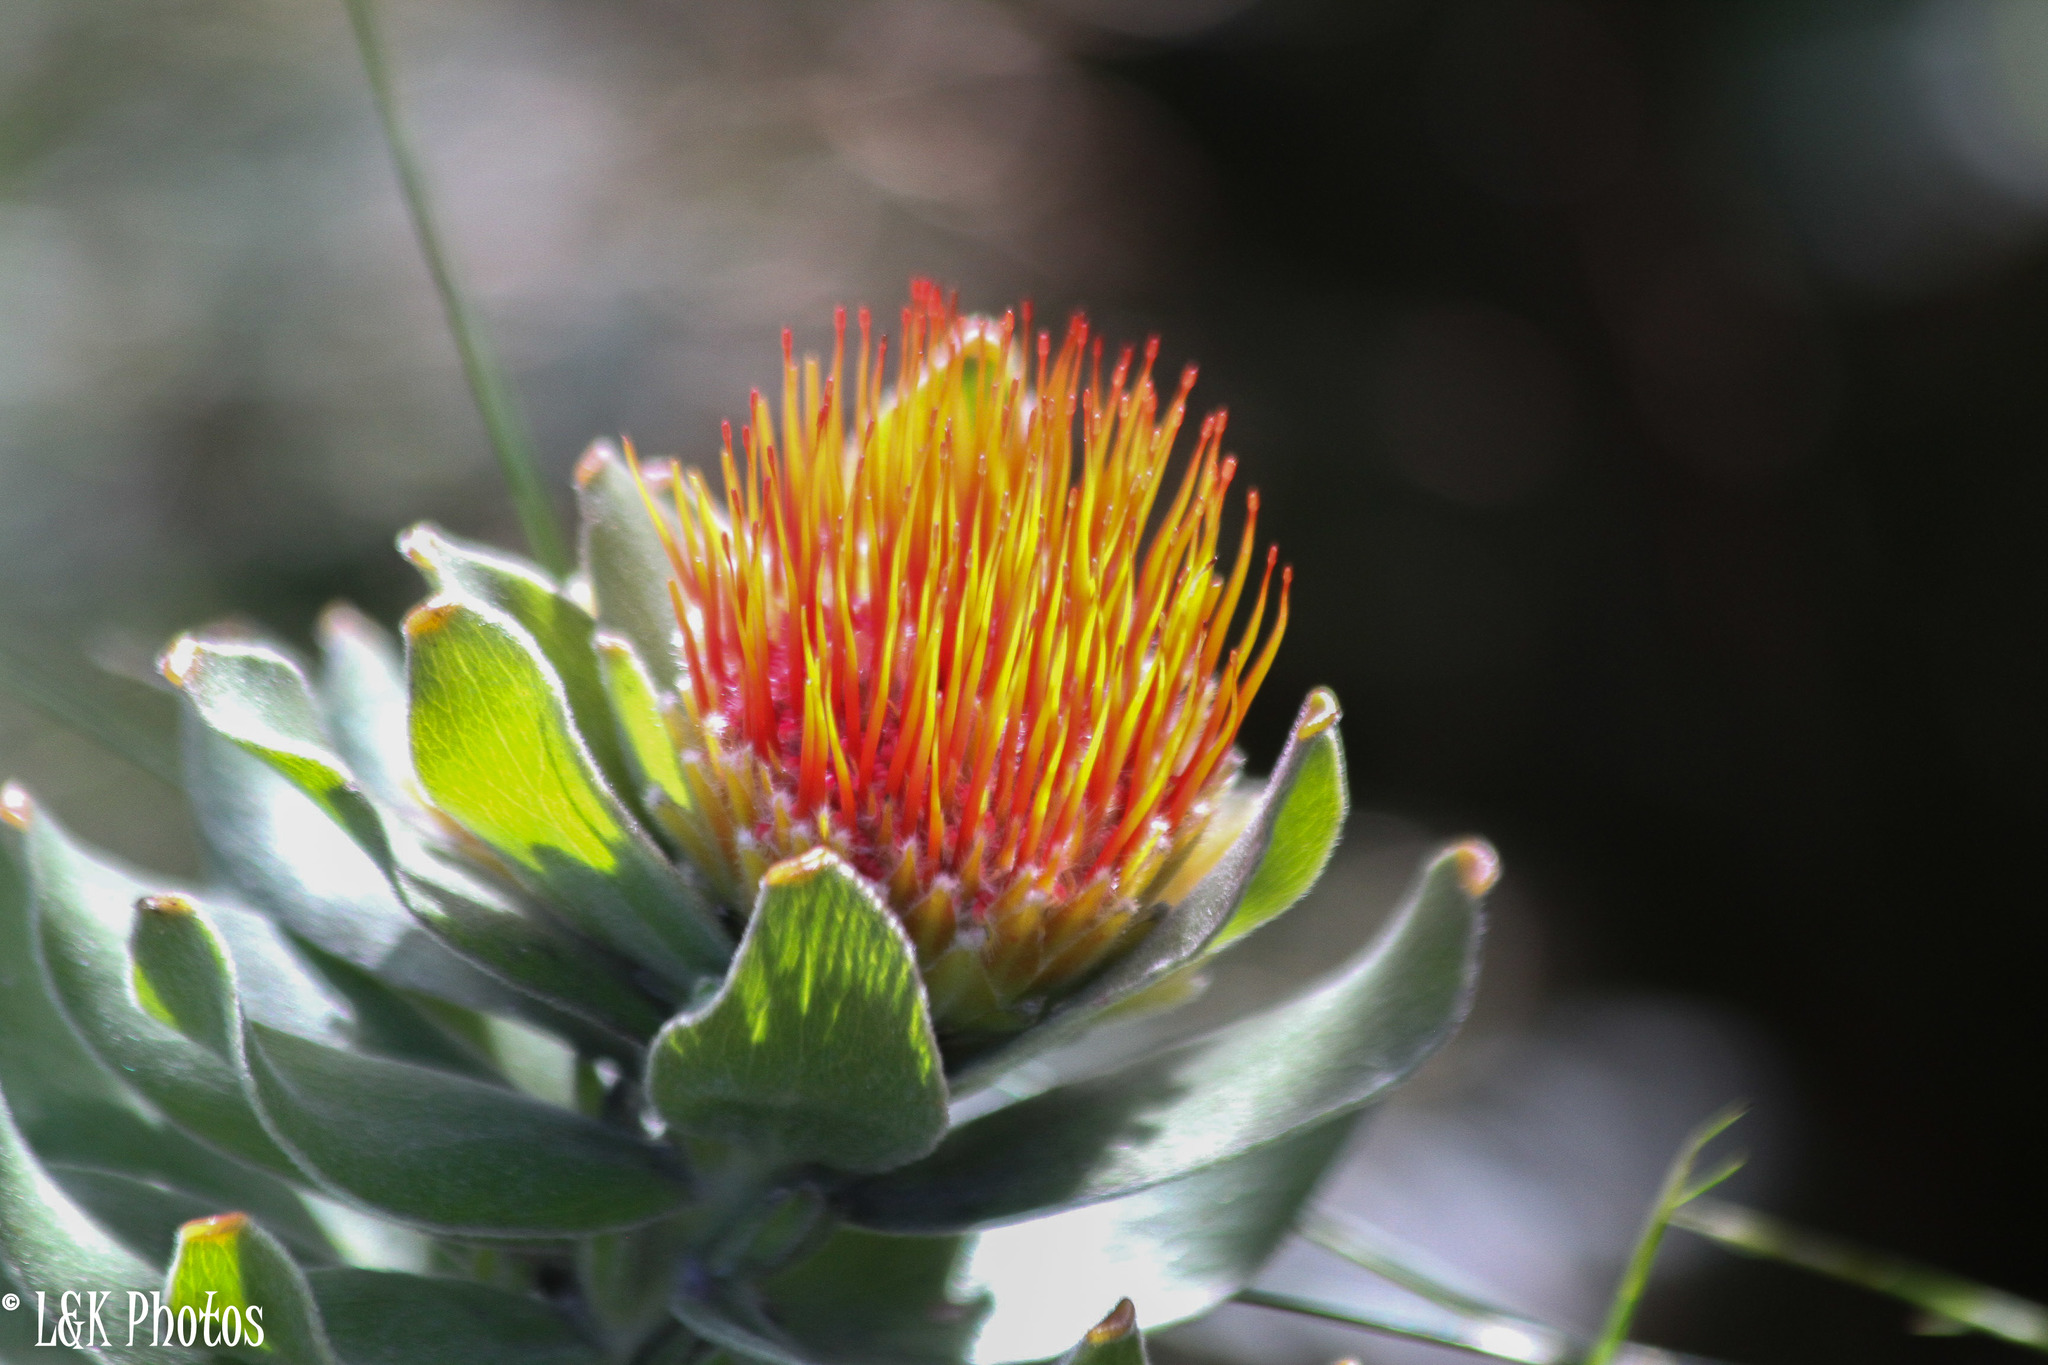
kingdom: Plantae
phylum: Tracheophyta
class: Magnoliopsida
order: Proteales
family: Proteaceae
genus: Leucospermum
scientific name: Leucospermum oleifolium
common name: Matches
